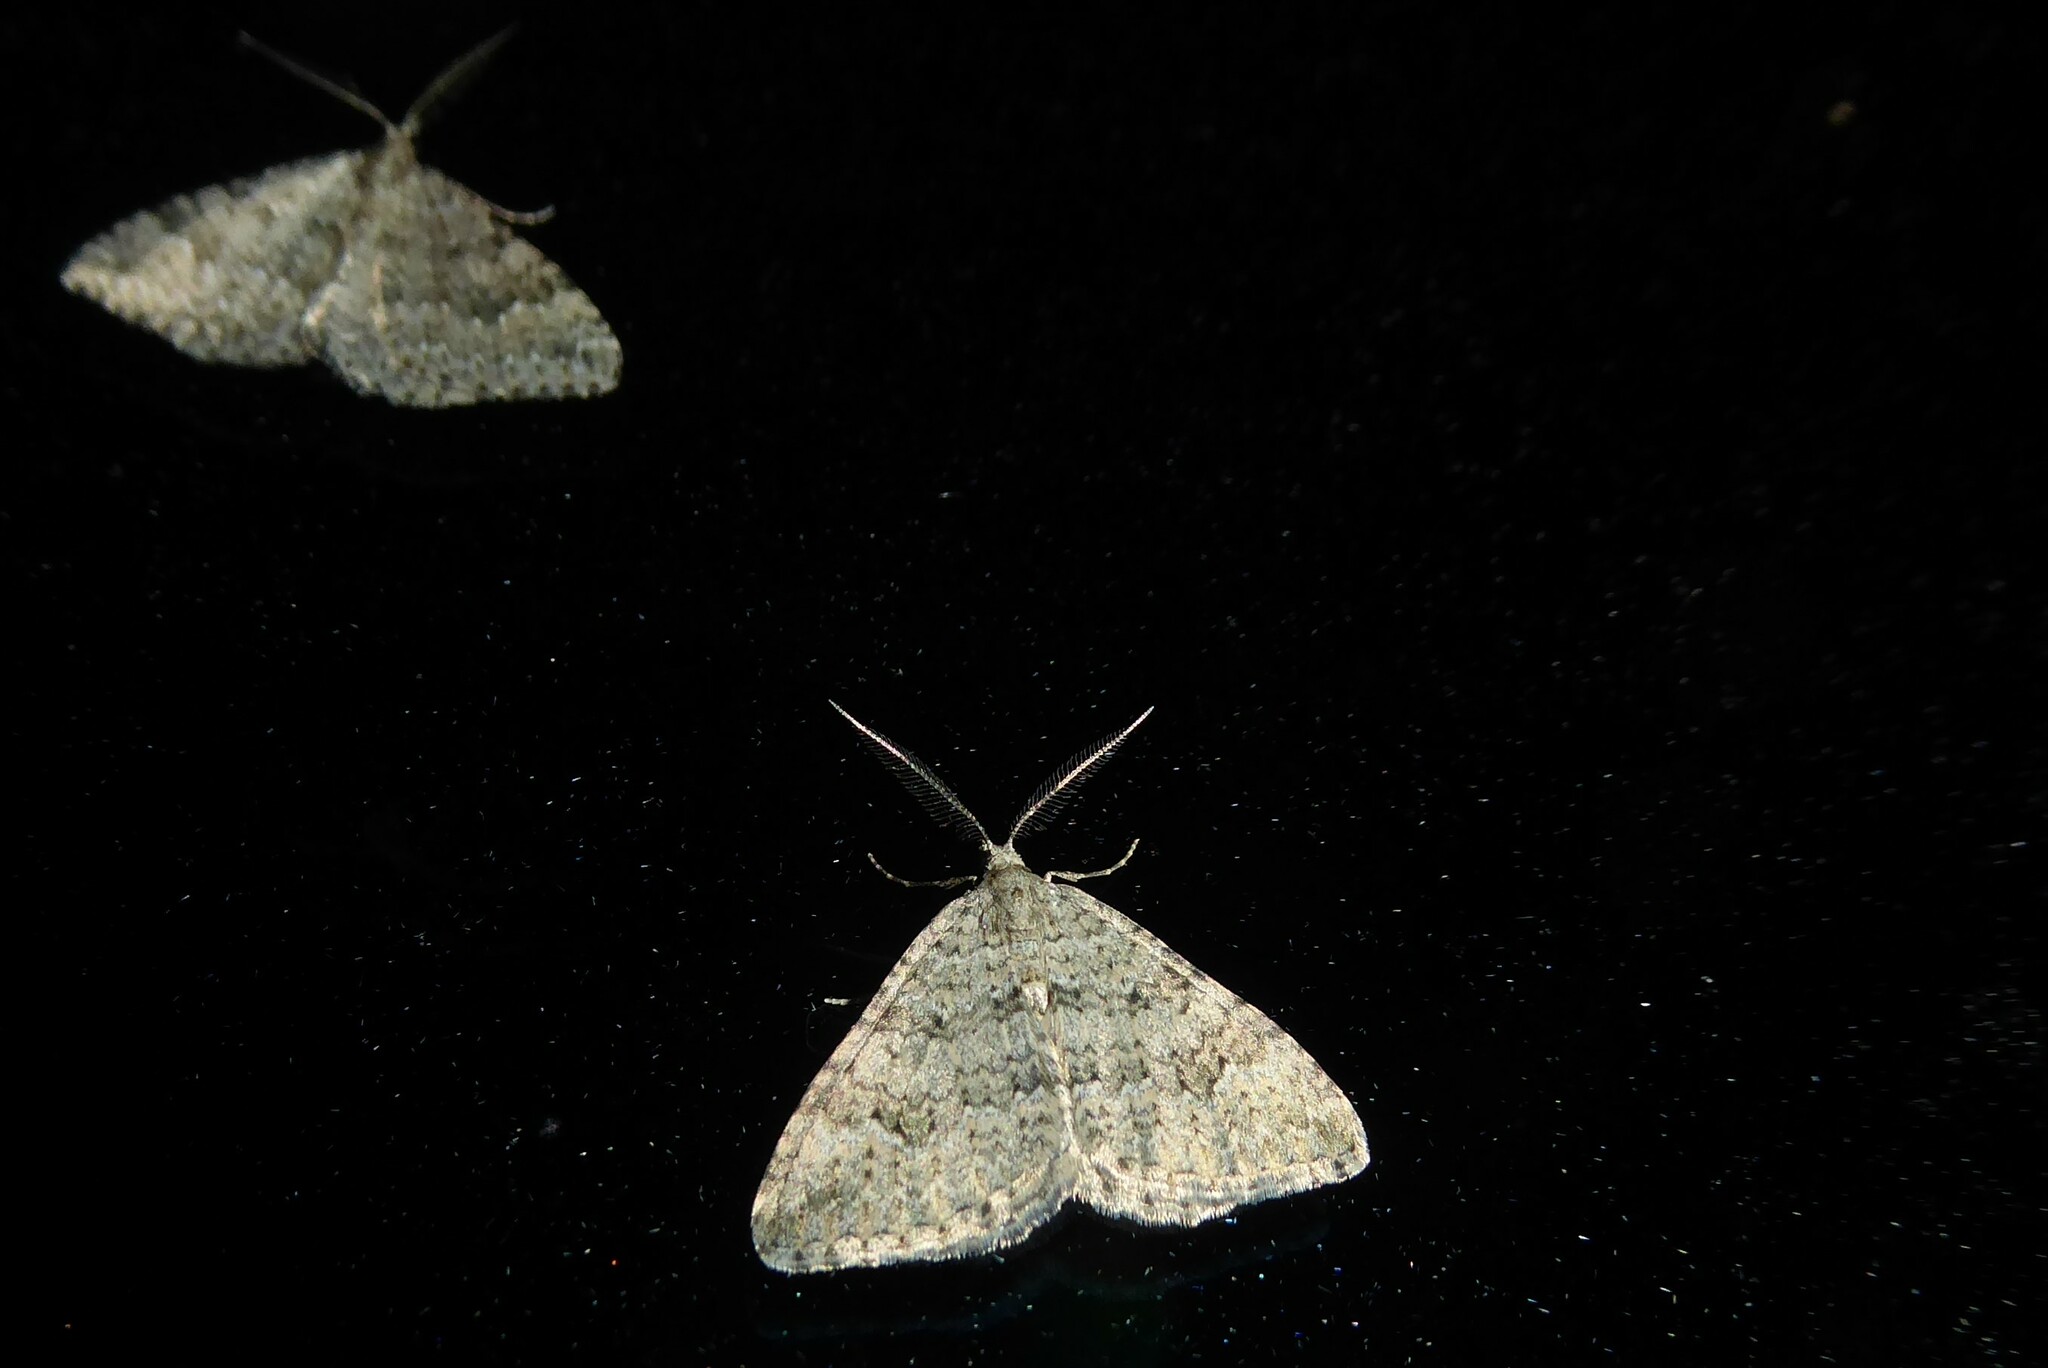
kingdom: Animalia
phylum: Arthropoda
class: Insecta
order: Lepidoptera
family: Geometridae
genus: Helastia
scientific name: Helastia corcularia
